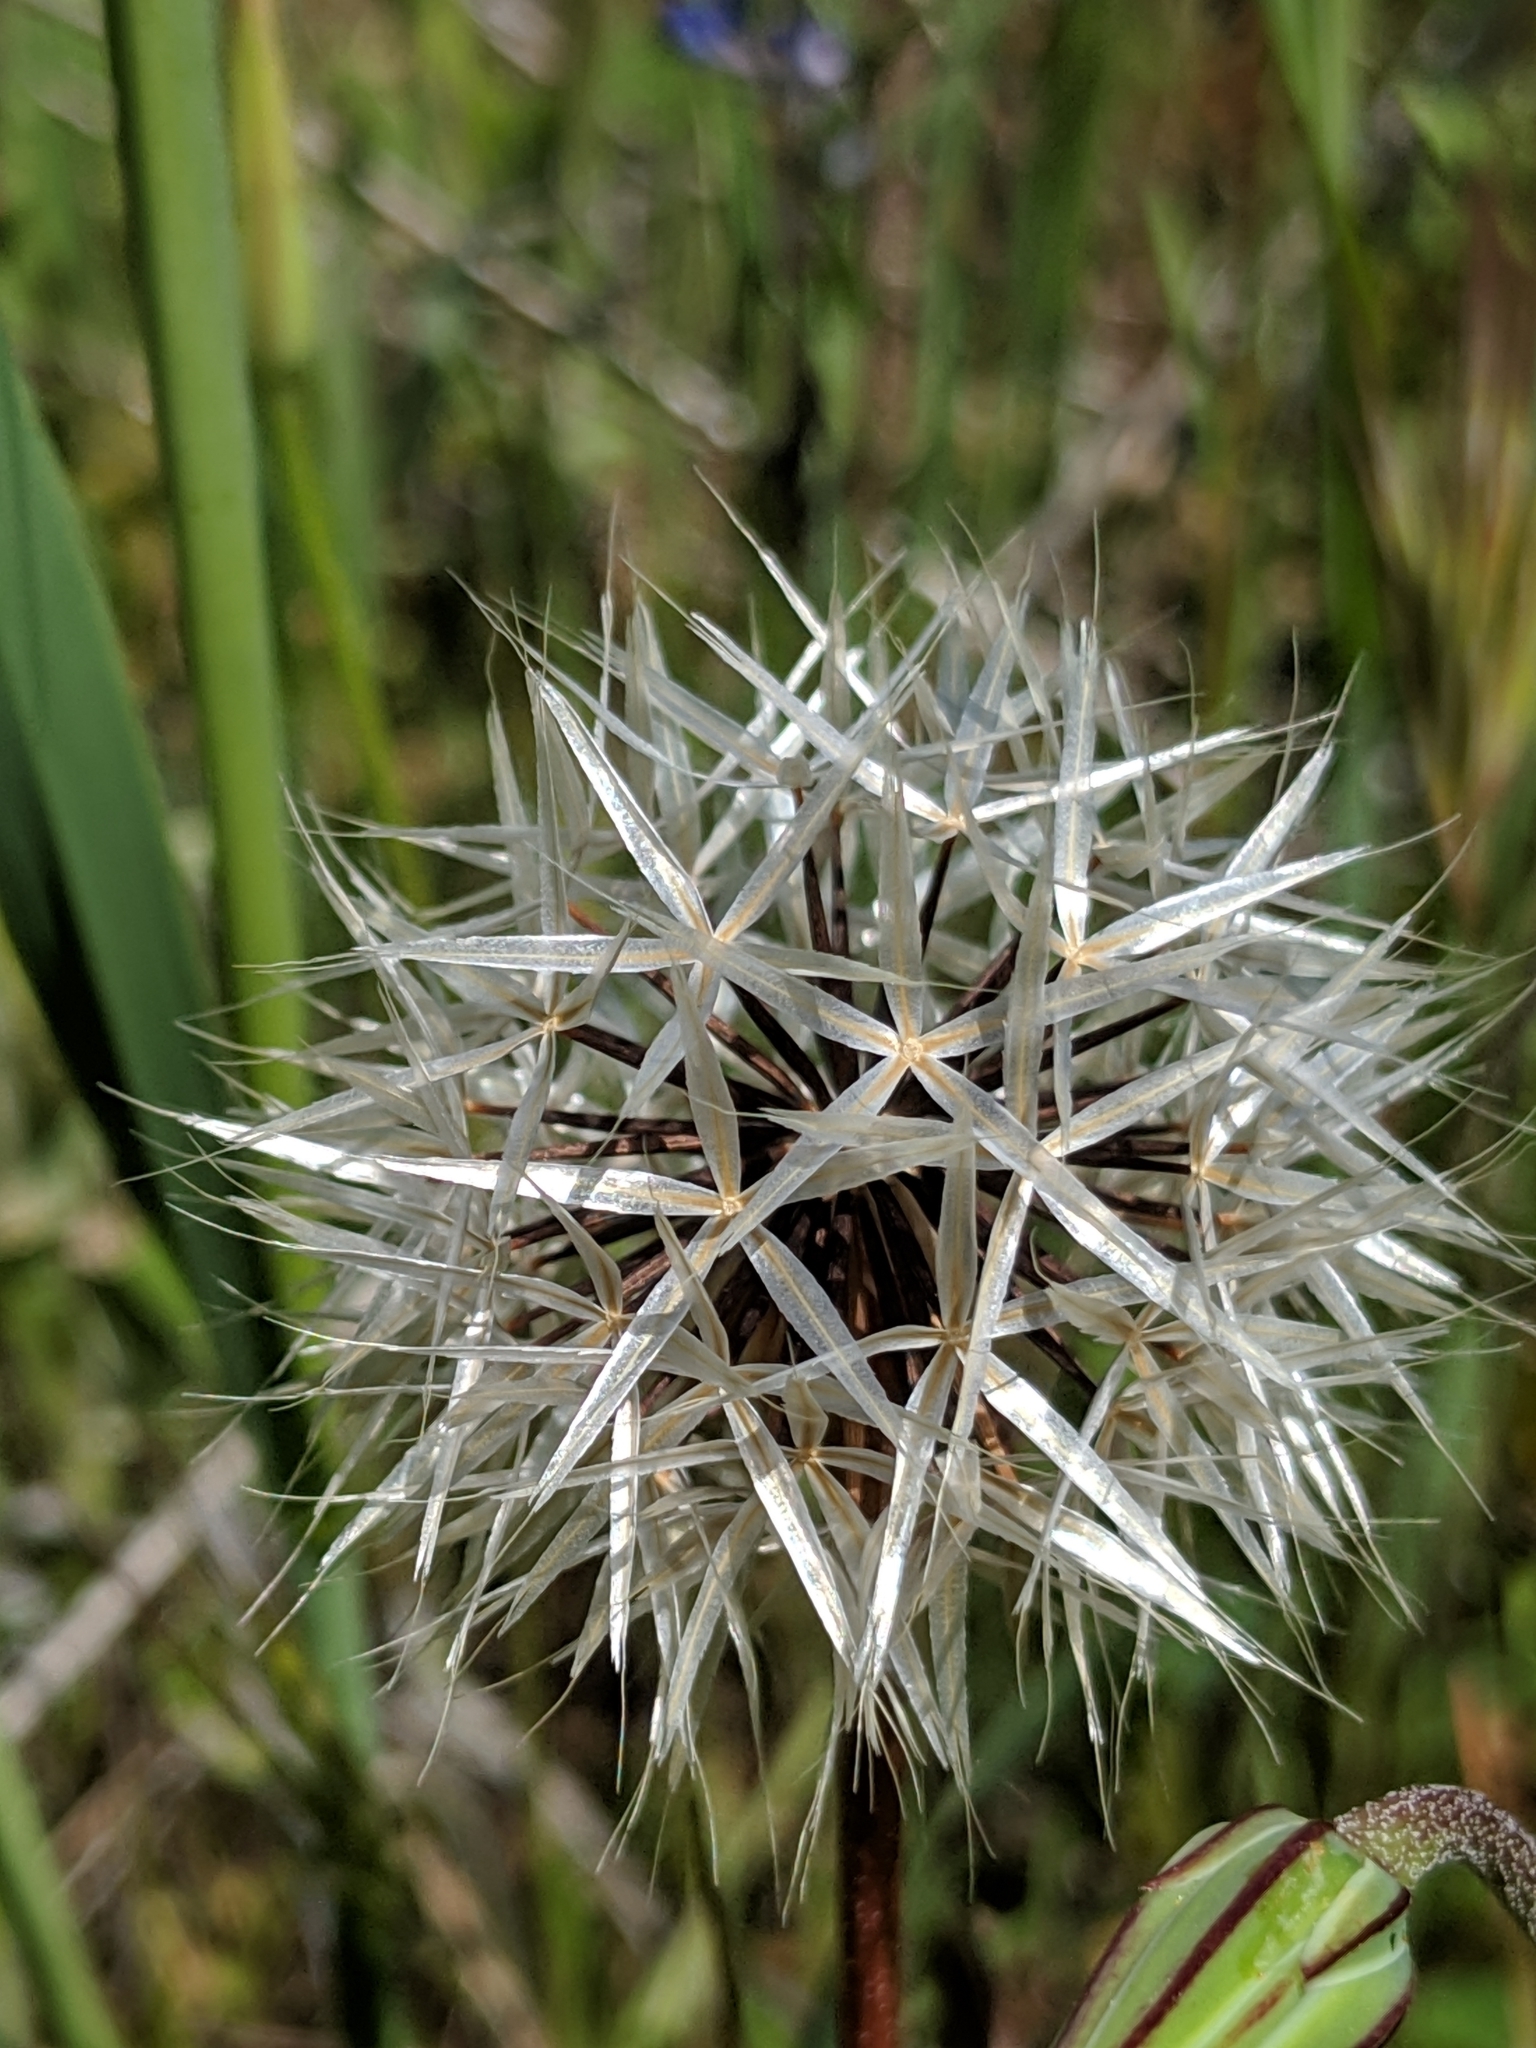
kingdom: Plantae
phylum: Tracheophyta
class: Magnoliopsida
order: Asterales
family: Asteraceae
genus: Microseris
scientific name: Microseris lindleyi
